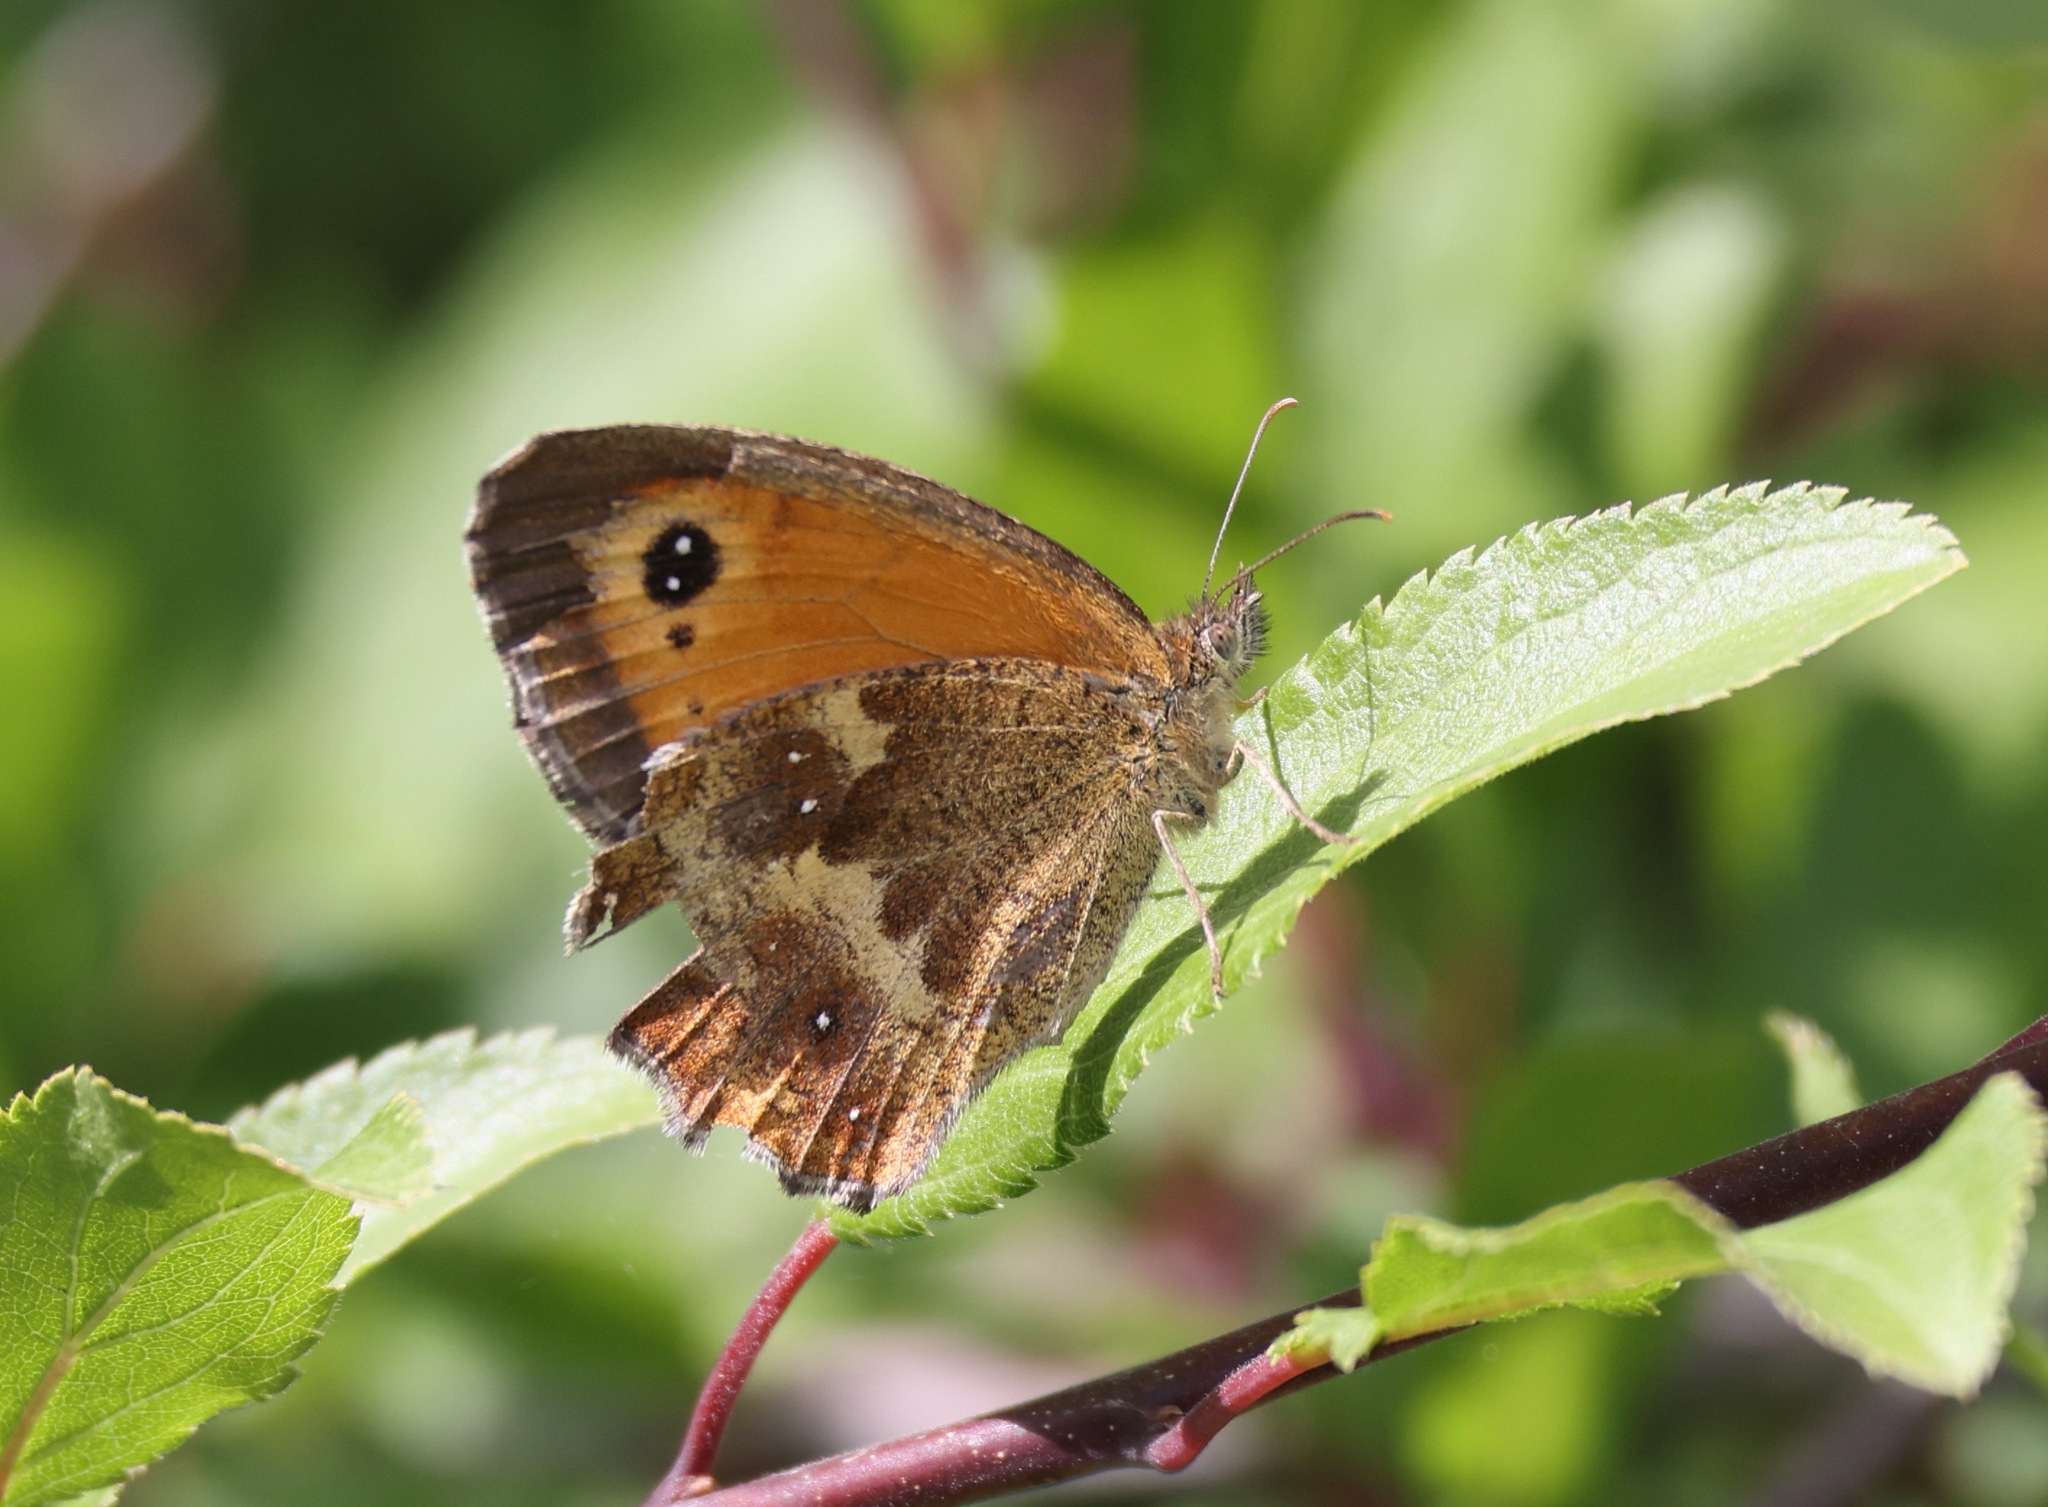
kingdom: Animalia
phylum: Arthropoda
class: Insecta
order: Lepidoptera
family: Nymphalidae
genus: Pyronia
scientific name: Pyronia tithonus
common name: Gatekeeper
